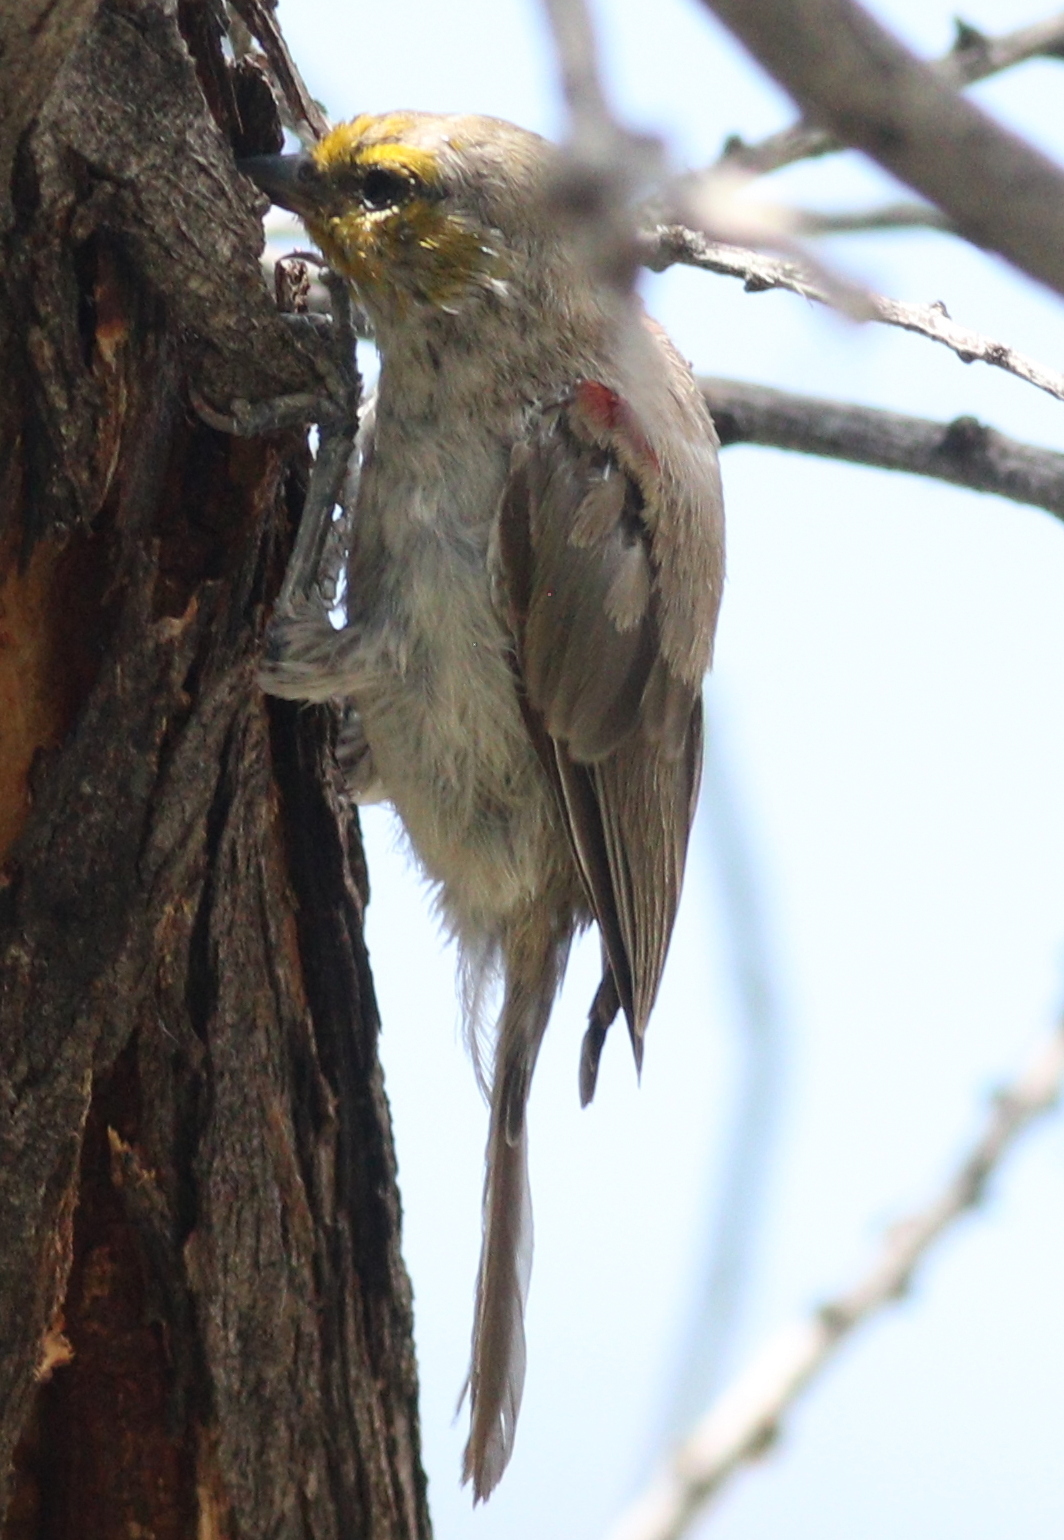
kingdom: Animalia
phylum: Chordata
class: Aves
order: Passeriformes
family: Remizidae
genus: Auriparus
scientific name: Auriparus flaviceps
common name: Verdin
